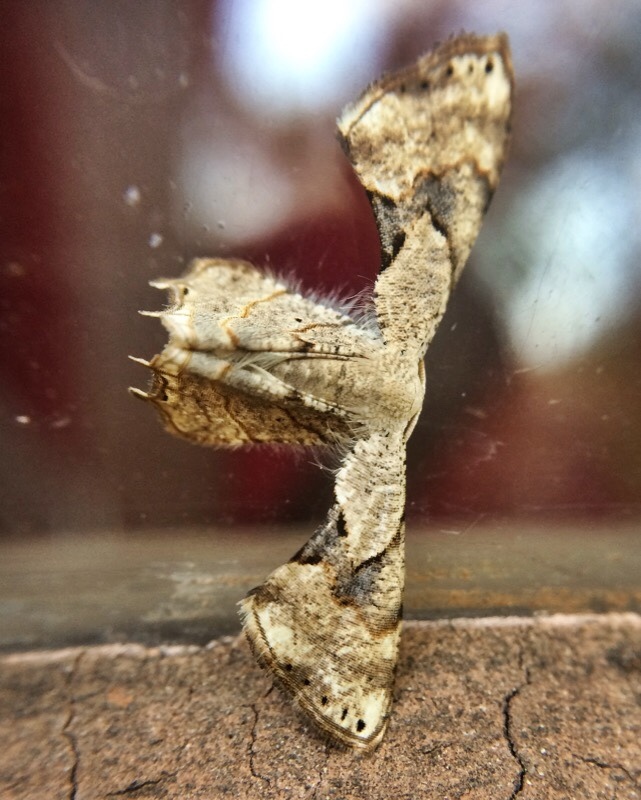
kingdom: Animalia
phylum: Arthropoda
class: Insecta
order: Lepidoptera
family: Uraniidae
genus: Epiplema
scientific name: Epiplema anomala
